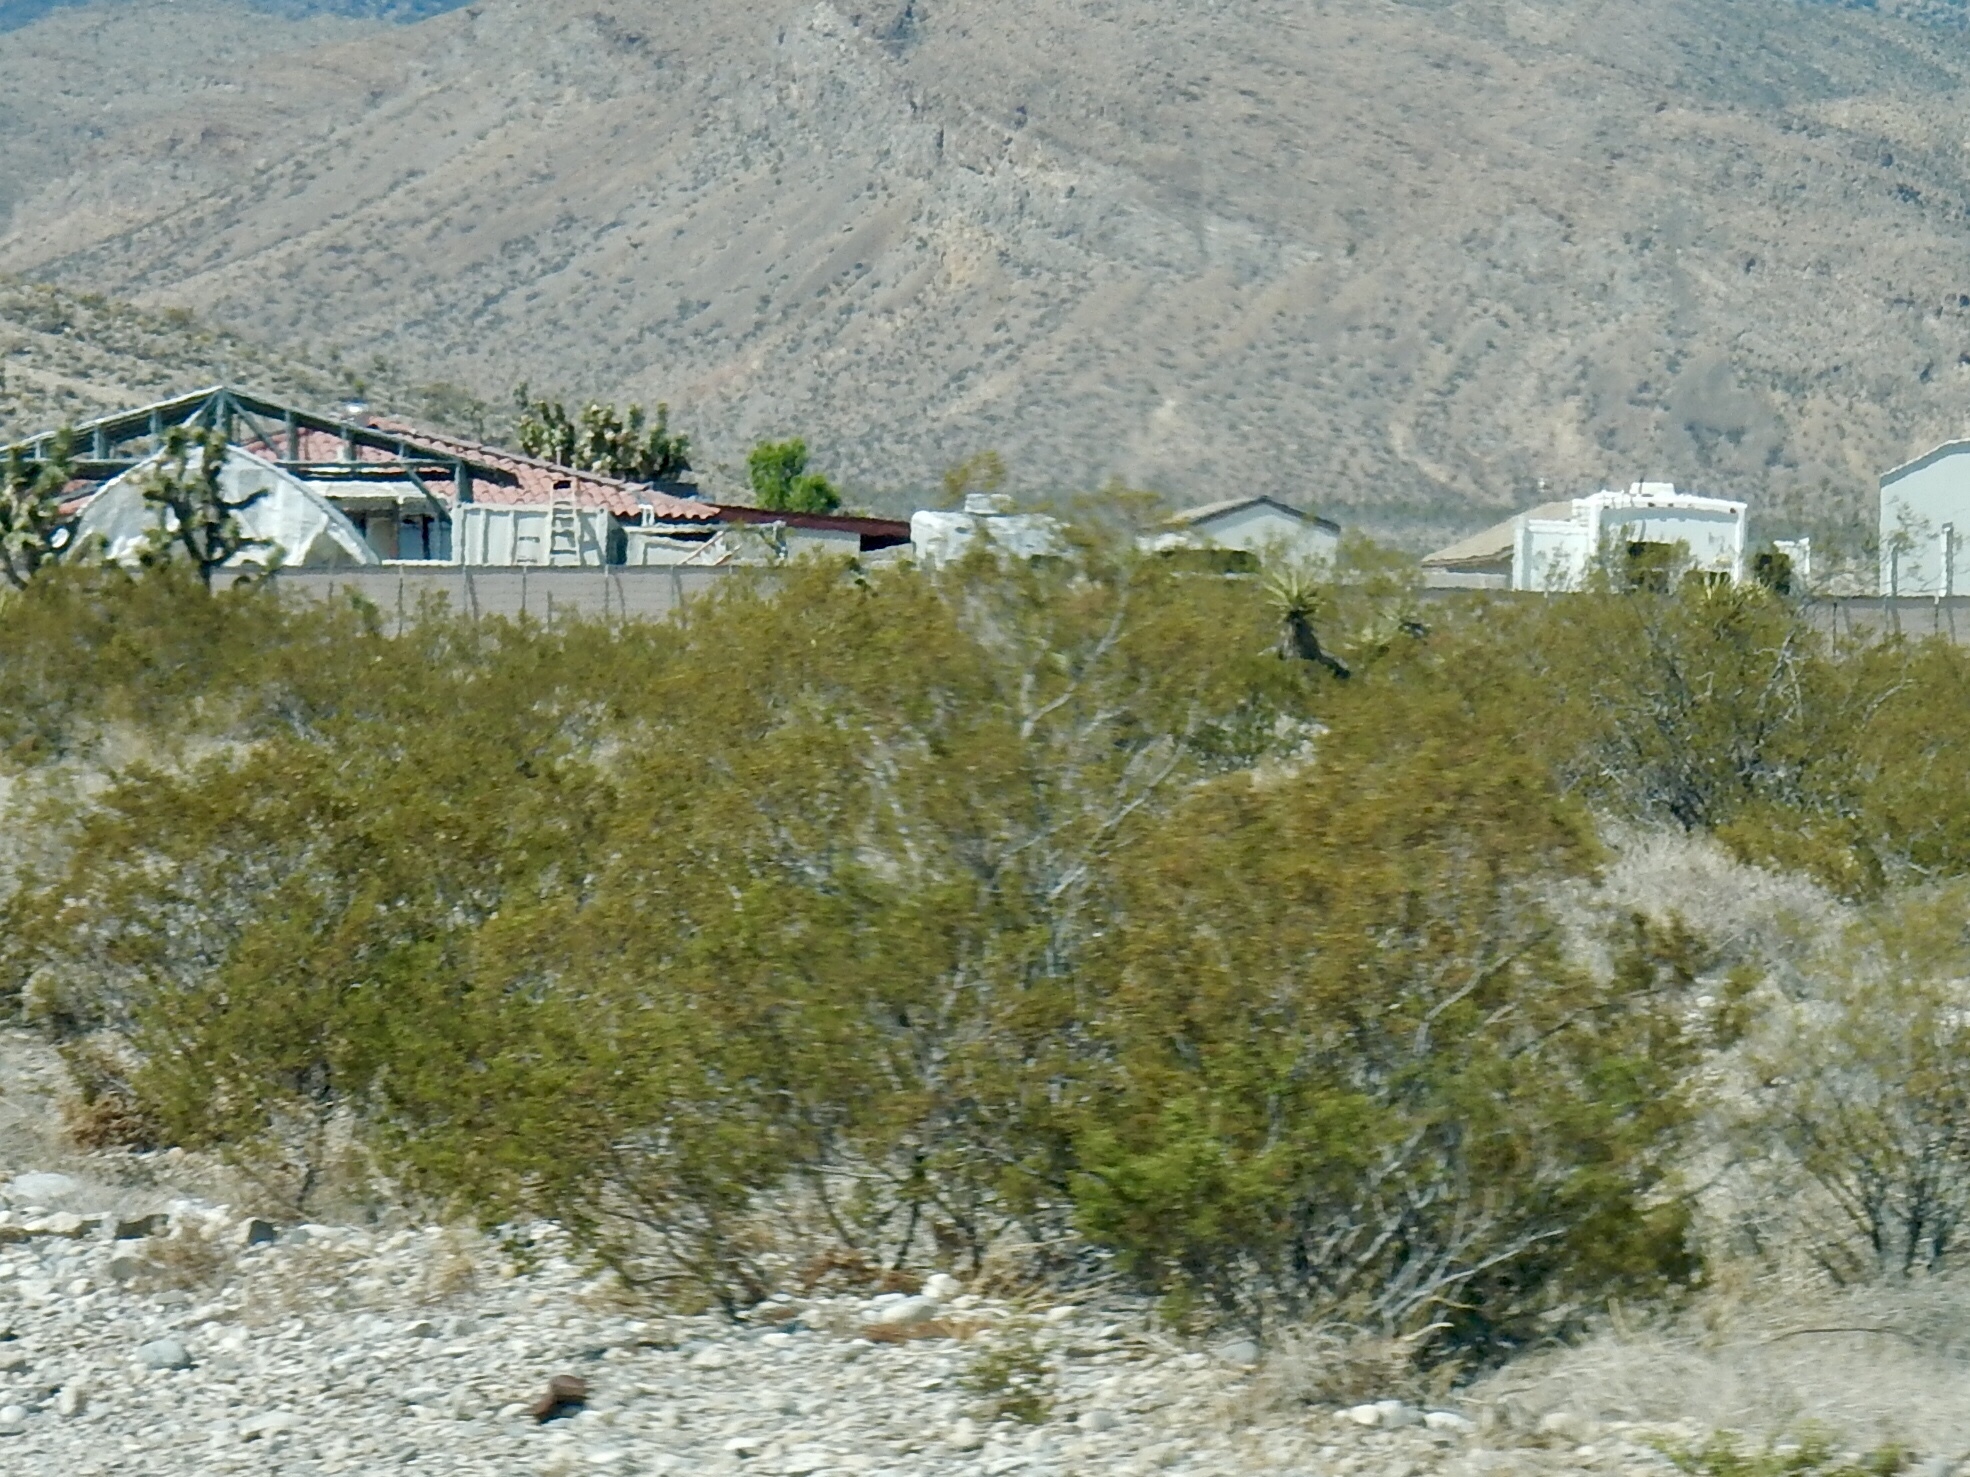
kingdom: Plantae
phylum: Tracheophyta
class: Magnoliopsida
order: Zygophyllales
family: Zygophyllaceae
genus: Larrea
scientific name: Larrea tridentata
